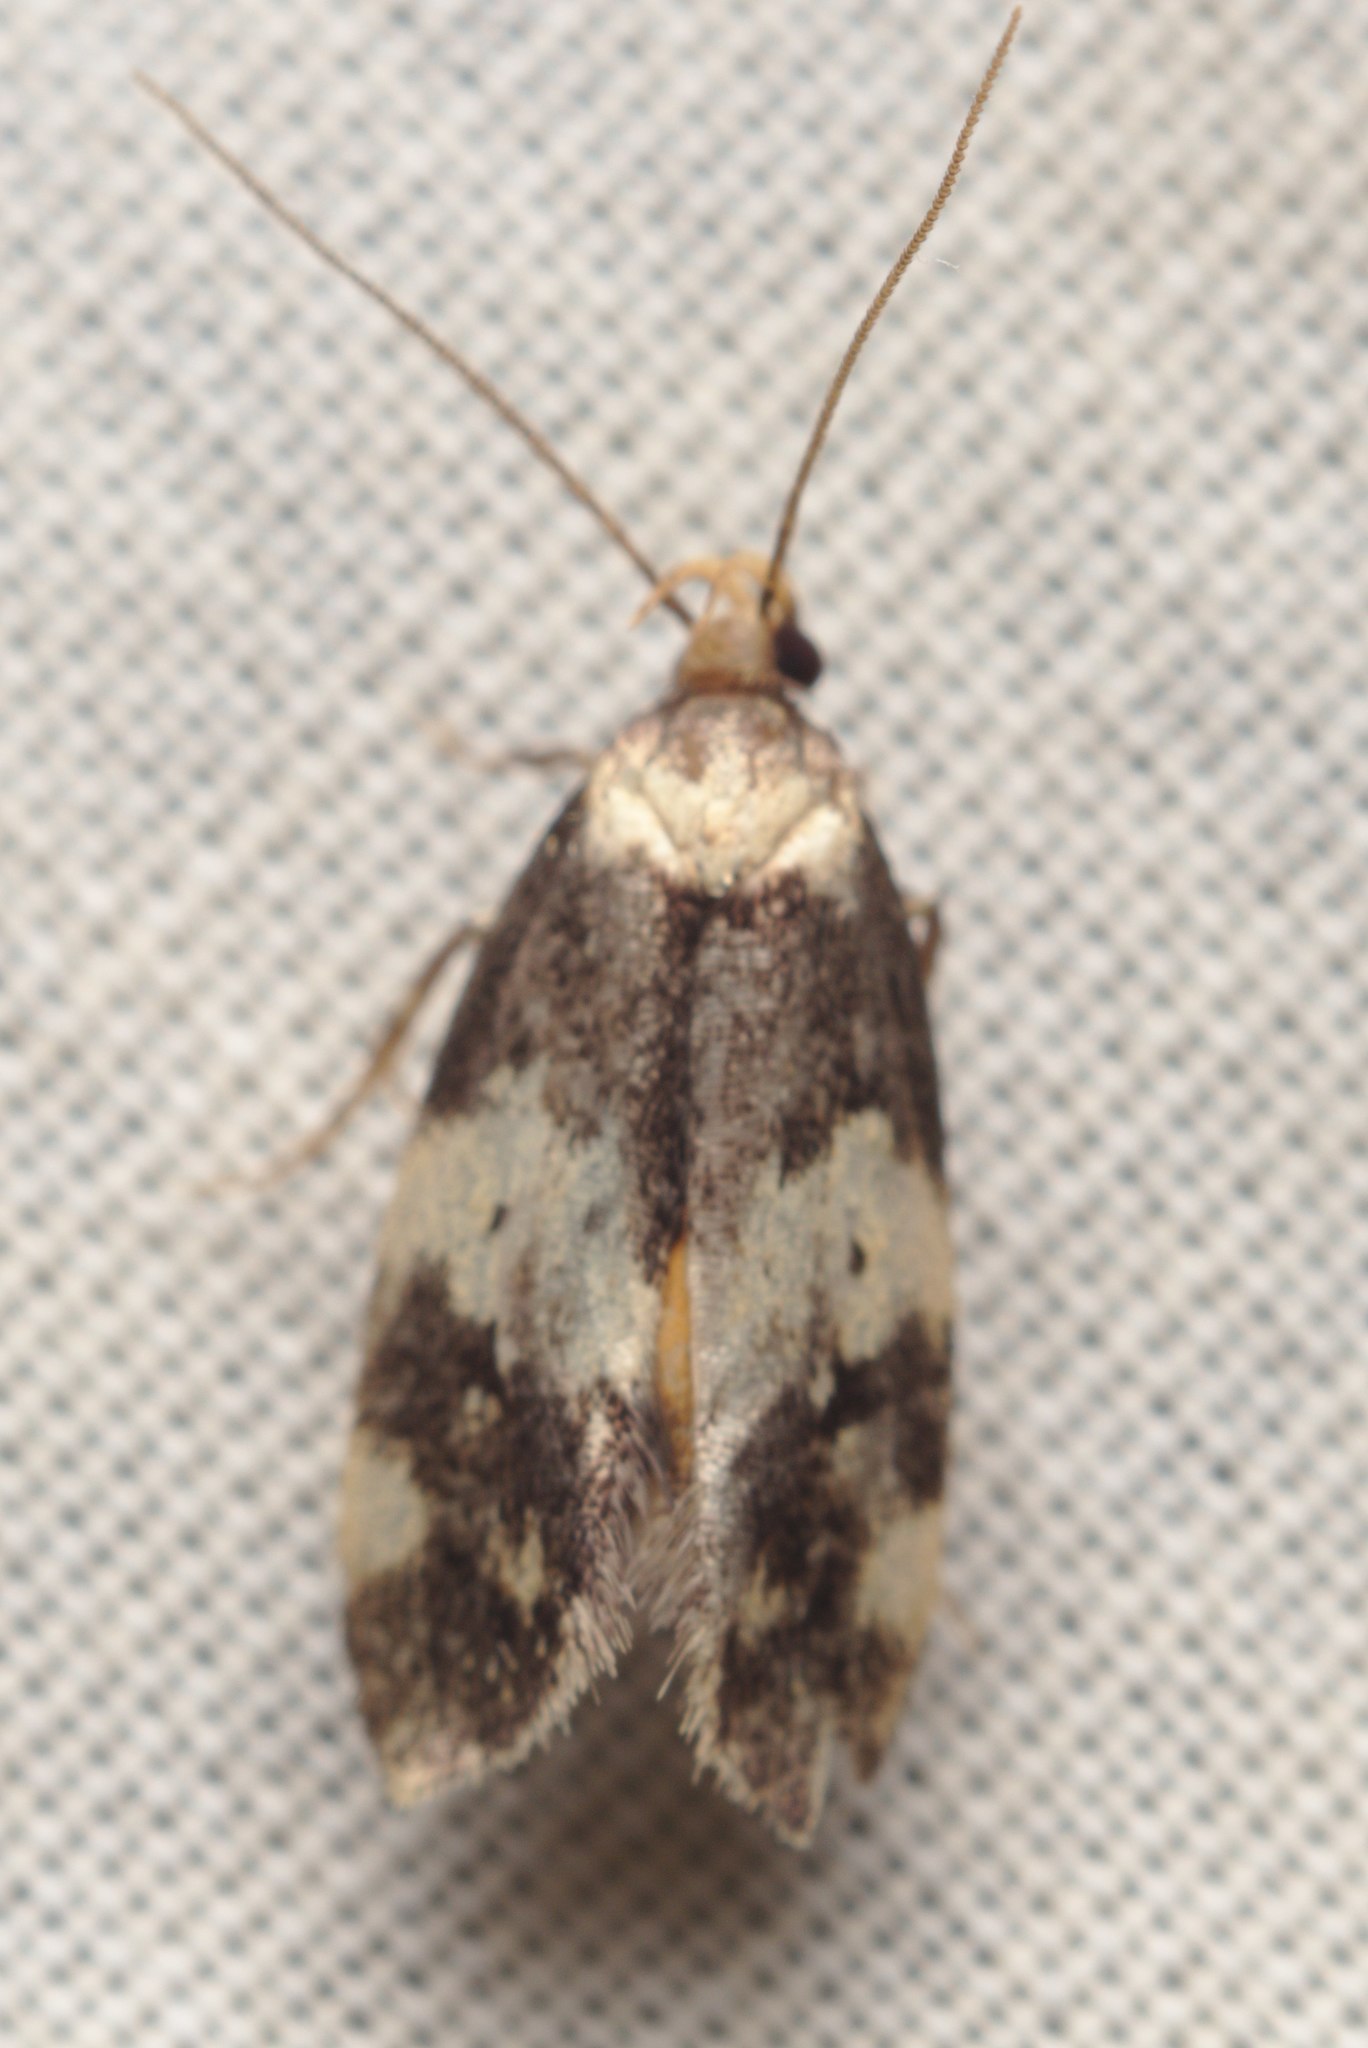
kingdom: Animalia
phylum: Arthropoda
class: Insecta
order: Lepidoptera
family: Oecophoridae
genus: Sphyrelata
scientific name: Sphyrelata amotella
